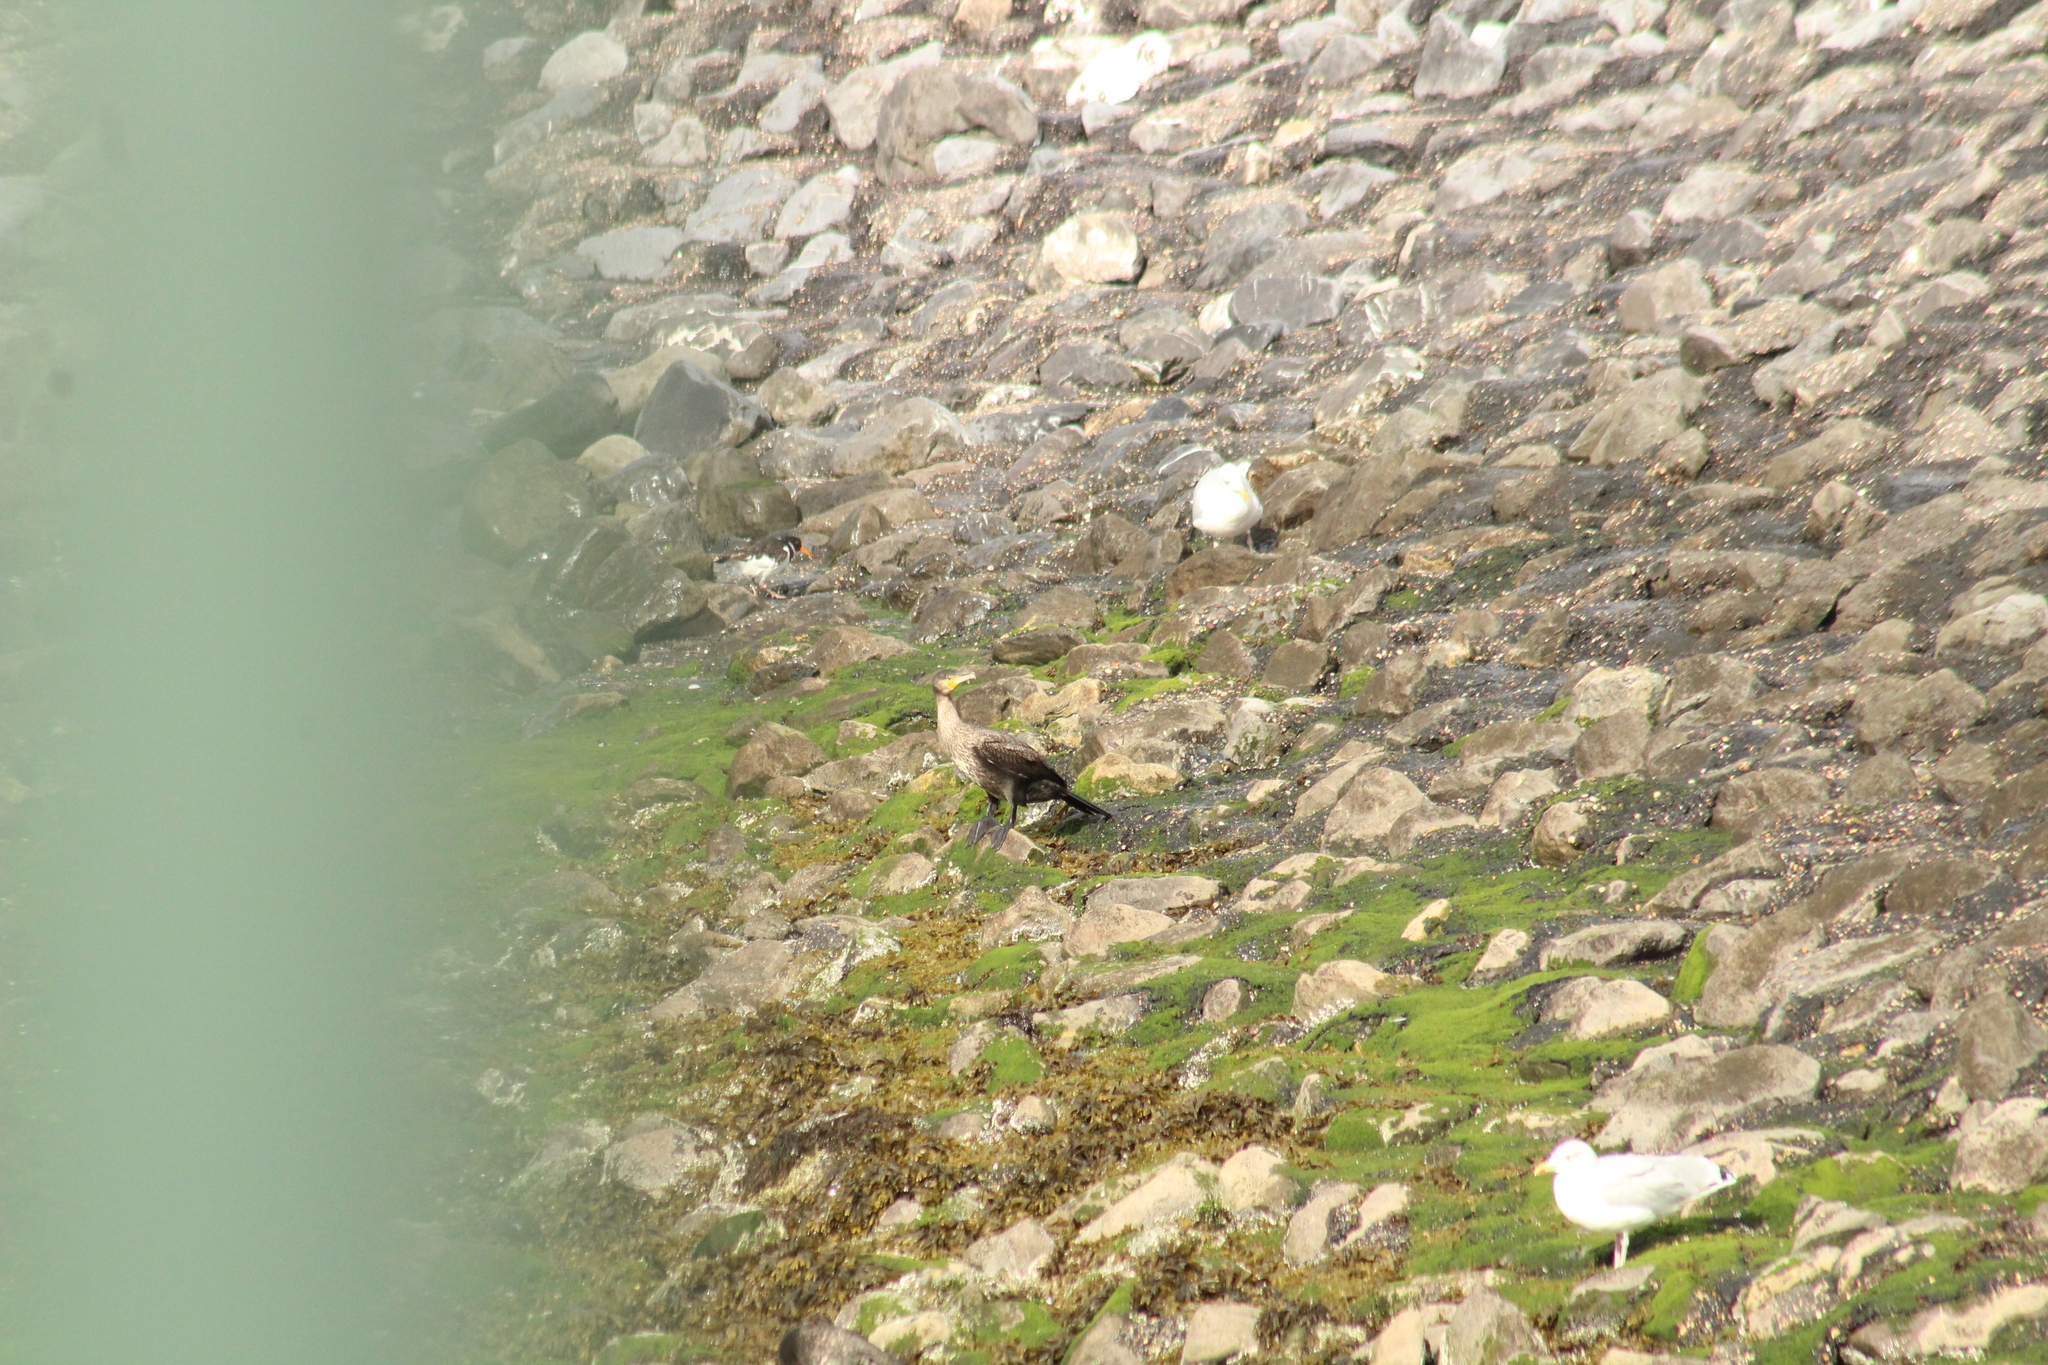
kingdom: Animalia
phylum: Chordata
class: Aves
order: Suliformes
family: Phalacrocoracidae
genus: Phalacrocorax
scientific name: Phalacrocorax carbo
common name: Great cormorant
